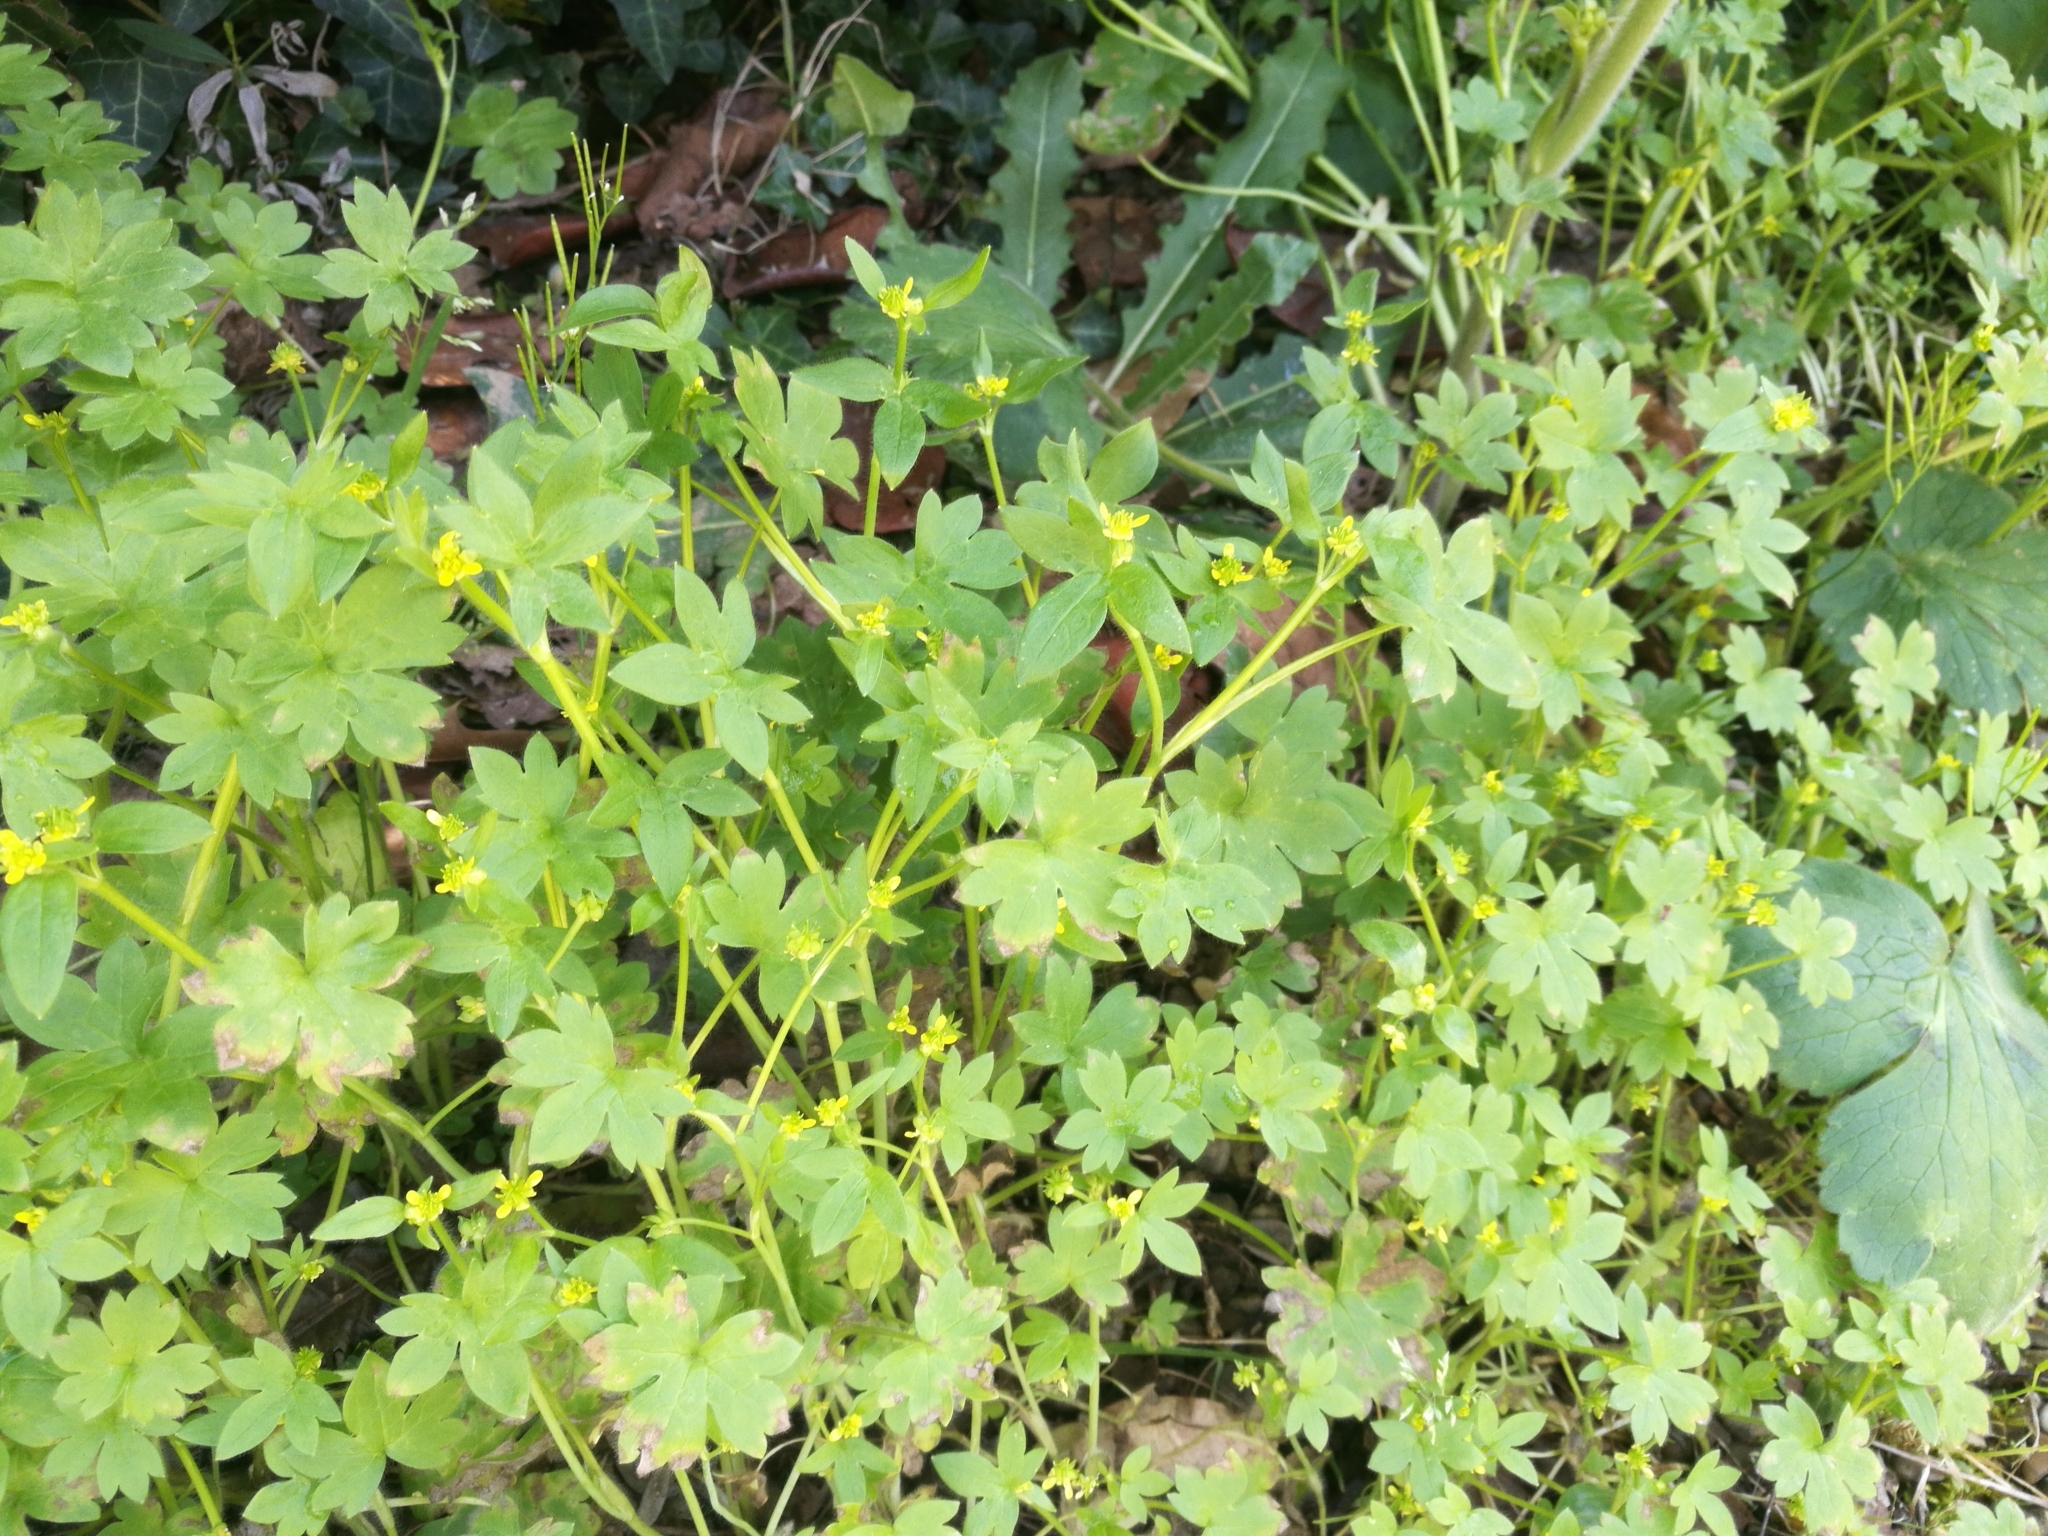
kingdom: Plantae
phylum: Tracheophyta
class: Magnoliopsida
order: Ranunculales
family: Ranunculaceae
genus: Ranunculus
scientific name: Ranunculus parviflorus
